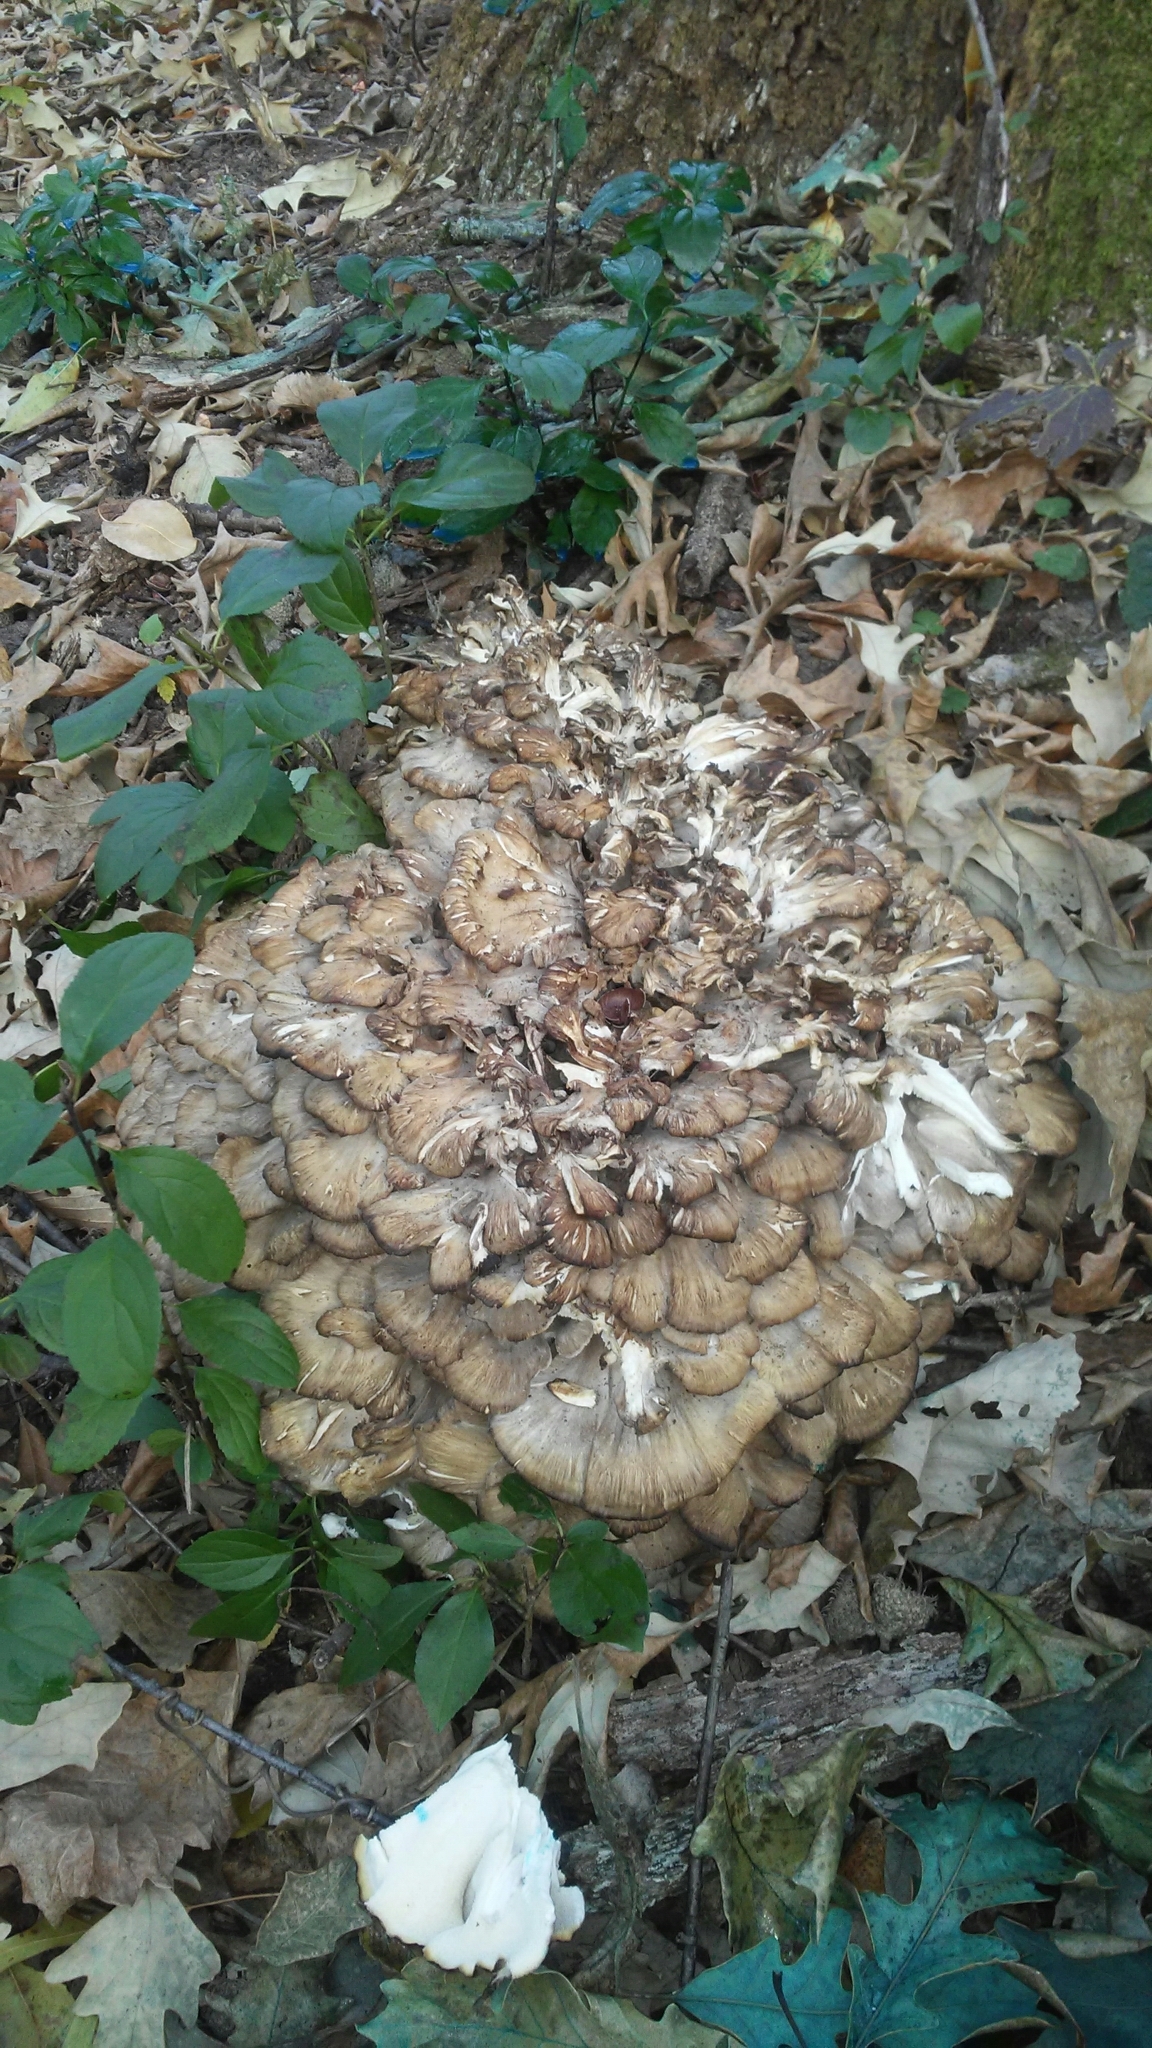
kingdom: Fungi
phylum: Basidiomycota
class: Agaricomycetes
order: Polyporales
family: Grifolaceae
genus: Grifola
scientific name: Grifola frondosa
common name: Hen of the woods
